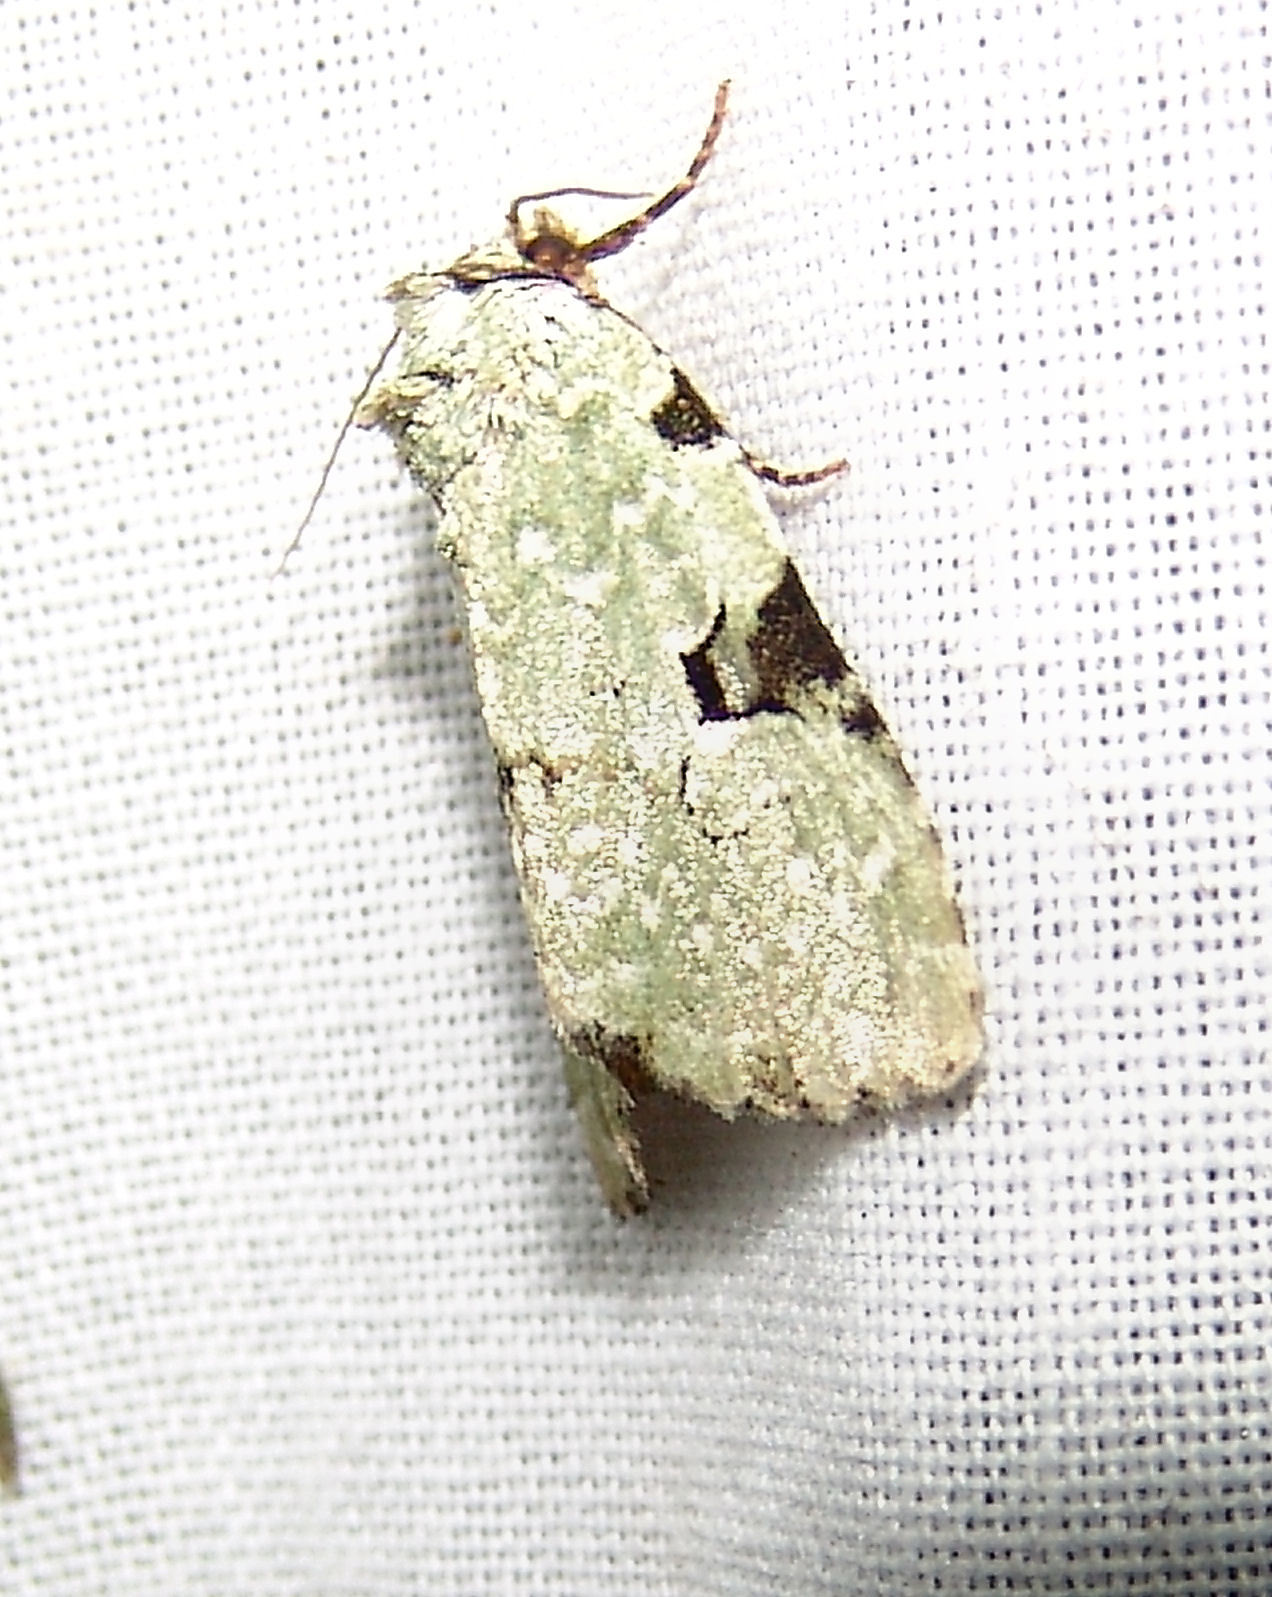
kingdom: Animalia
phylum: Arthropoda
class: Insecta
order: Lepidoptera
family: Noctuidae
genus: Leuconycta
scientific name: Leuconycta diphteroides
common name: Green leuconycta moth
